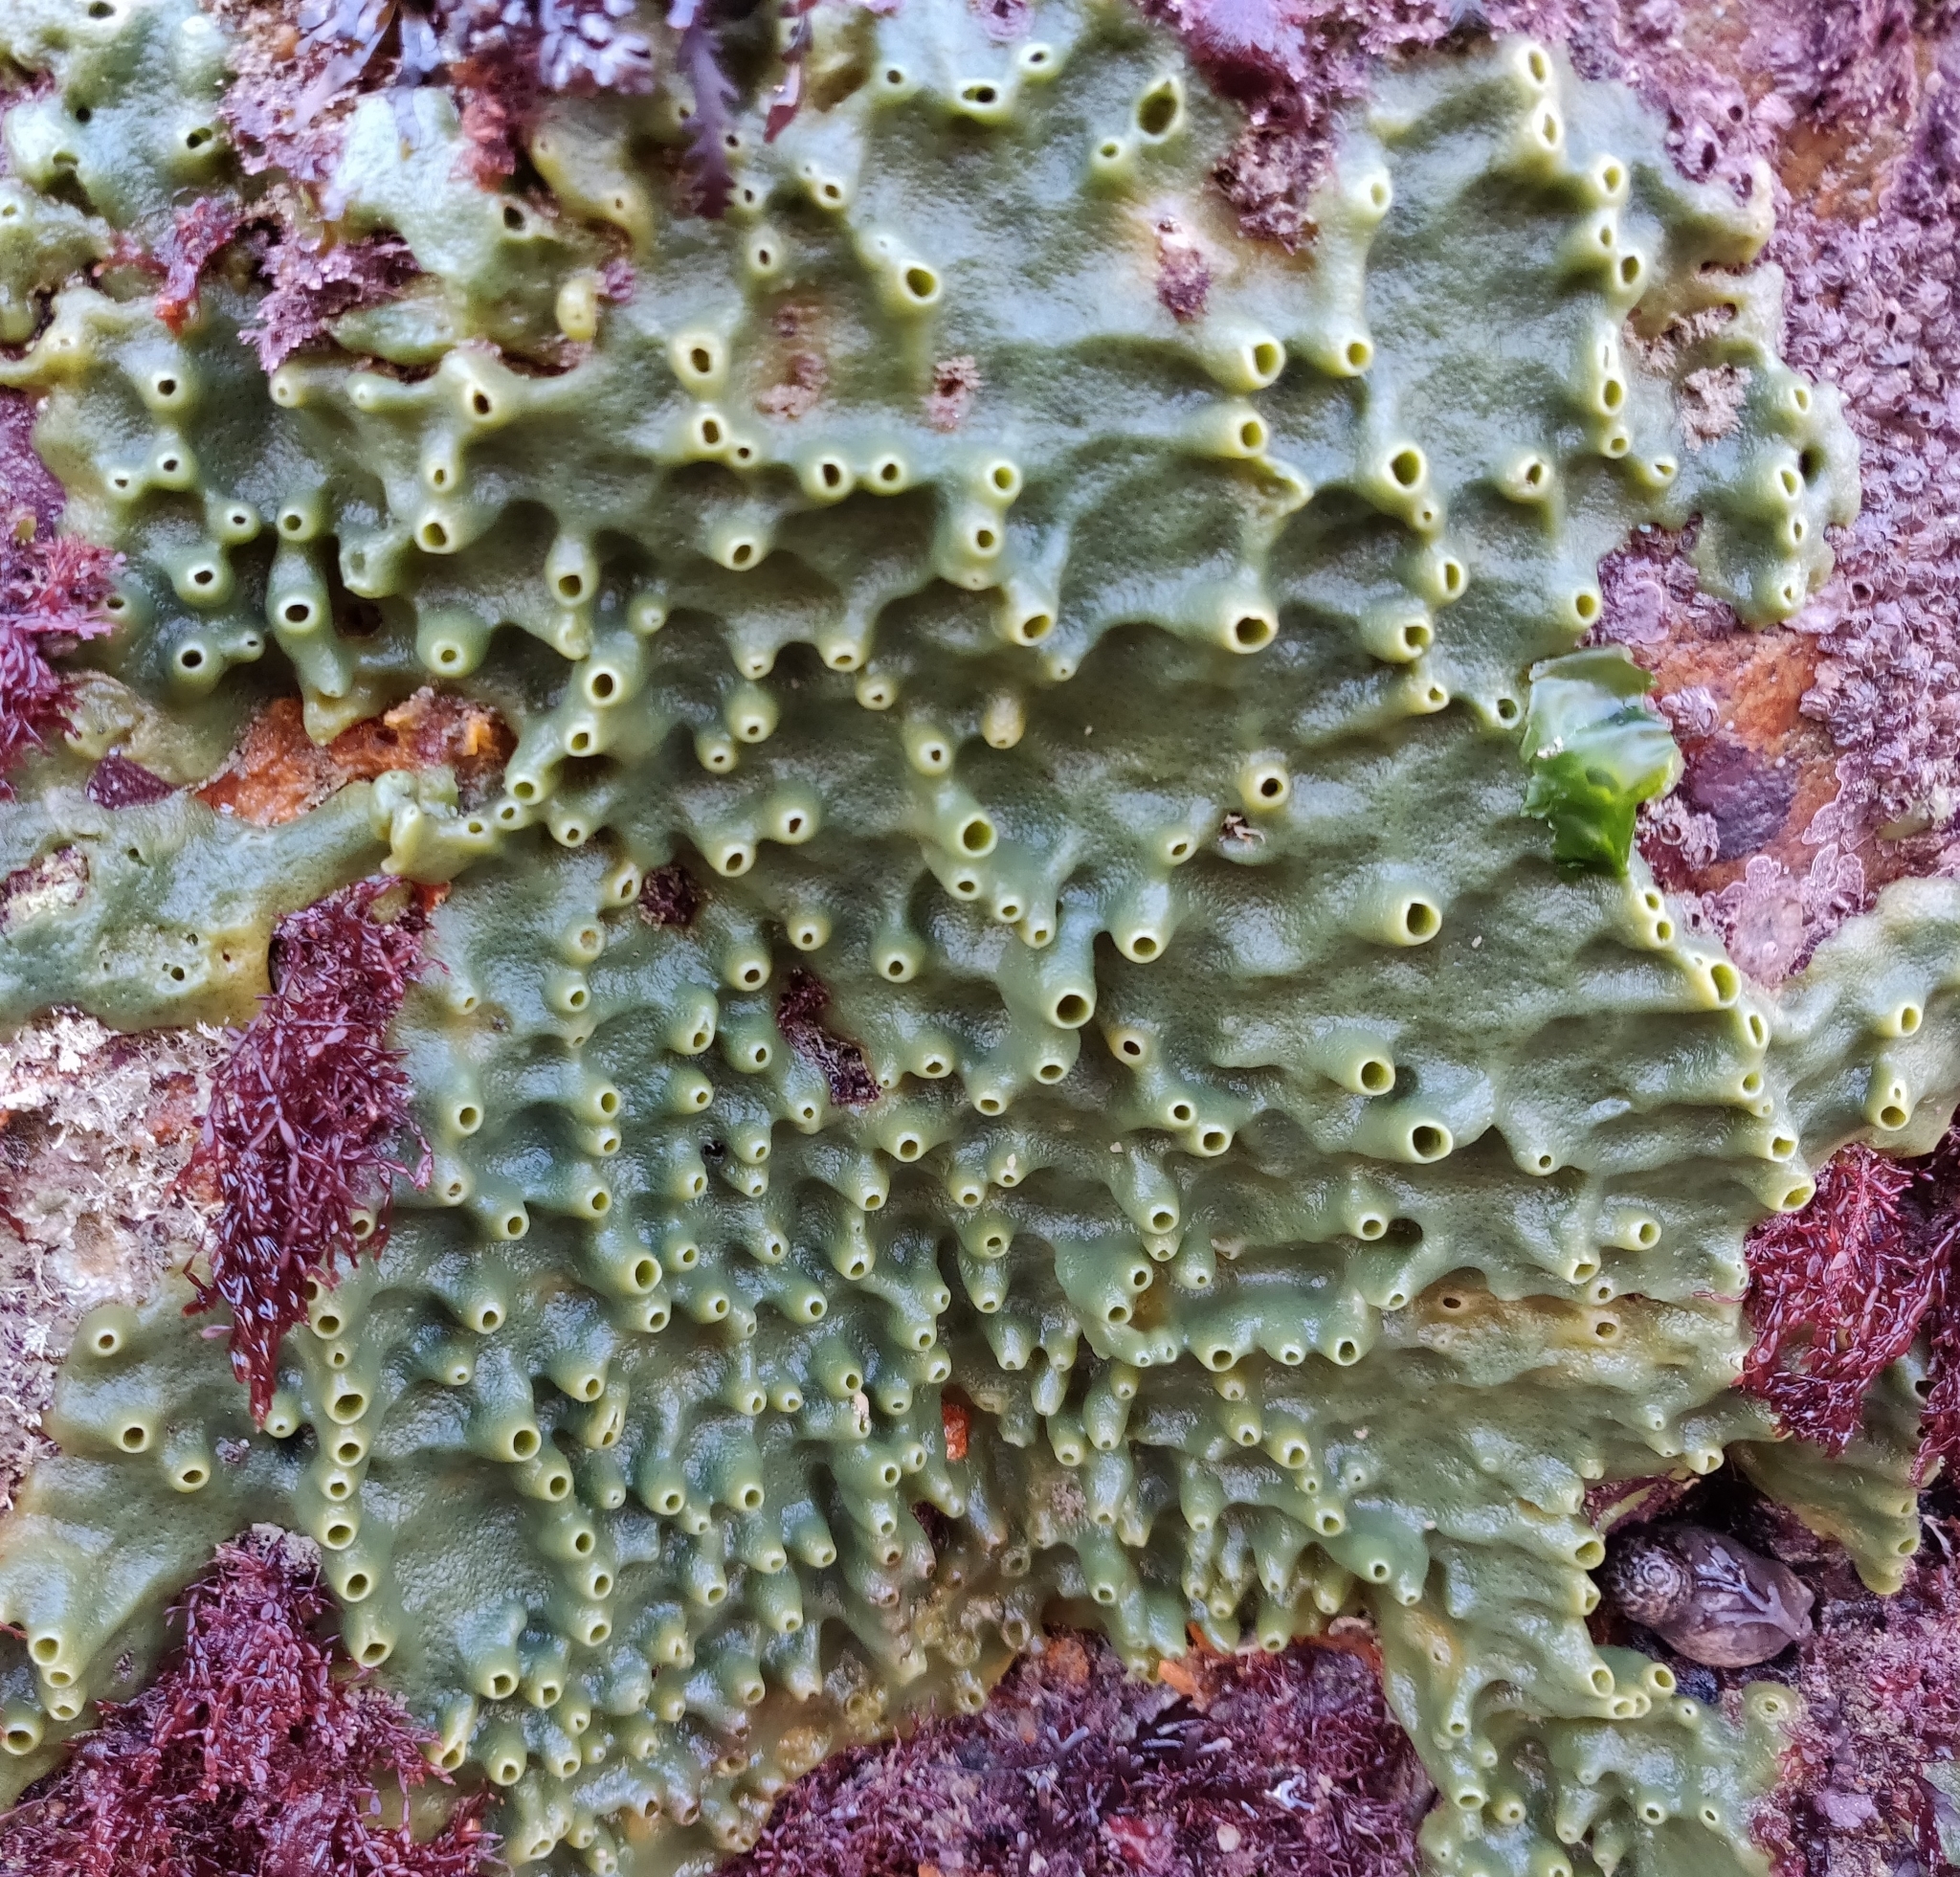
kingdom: Animalia
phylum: Porifera
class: Demospongiae
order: Suberitida
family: Halichondriidae
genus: Halichondria
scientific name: Halichondria panicea
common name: Breadcrumb sponge
